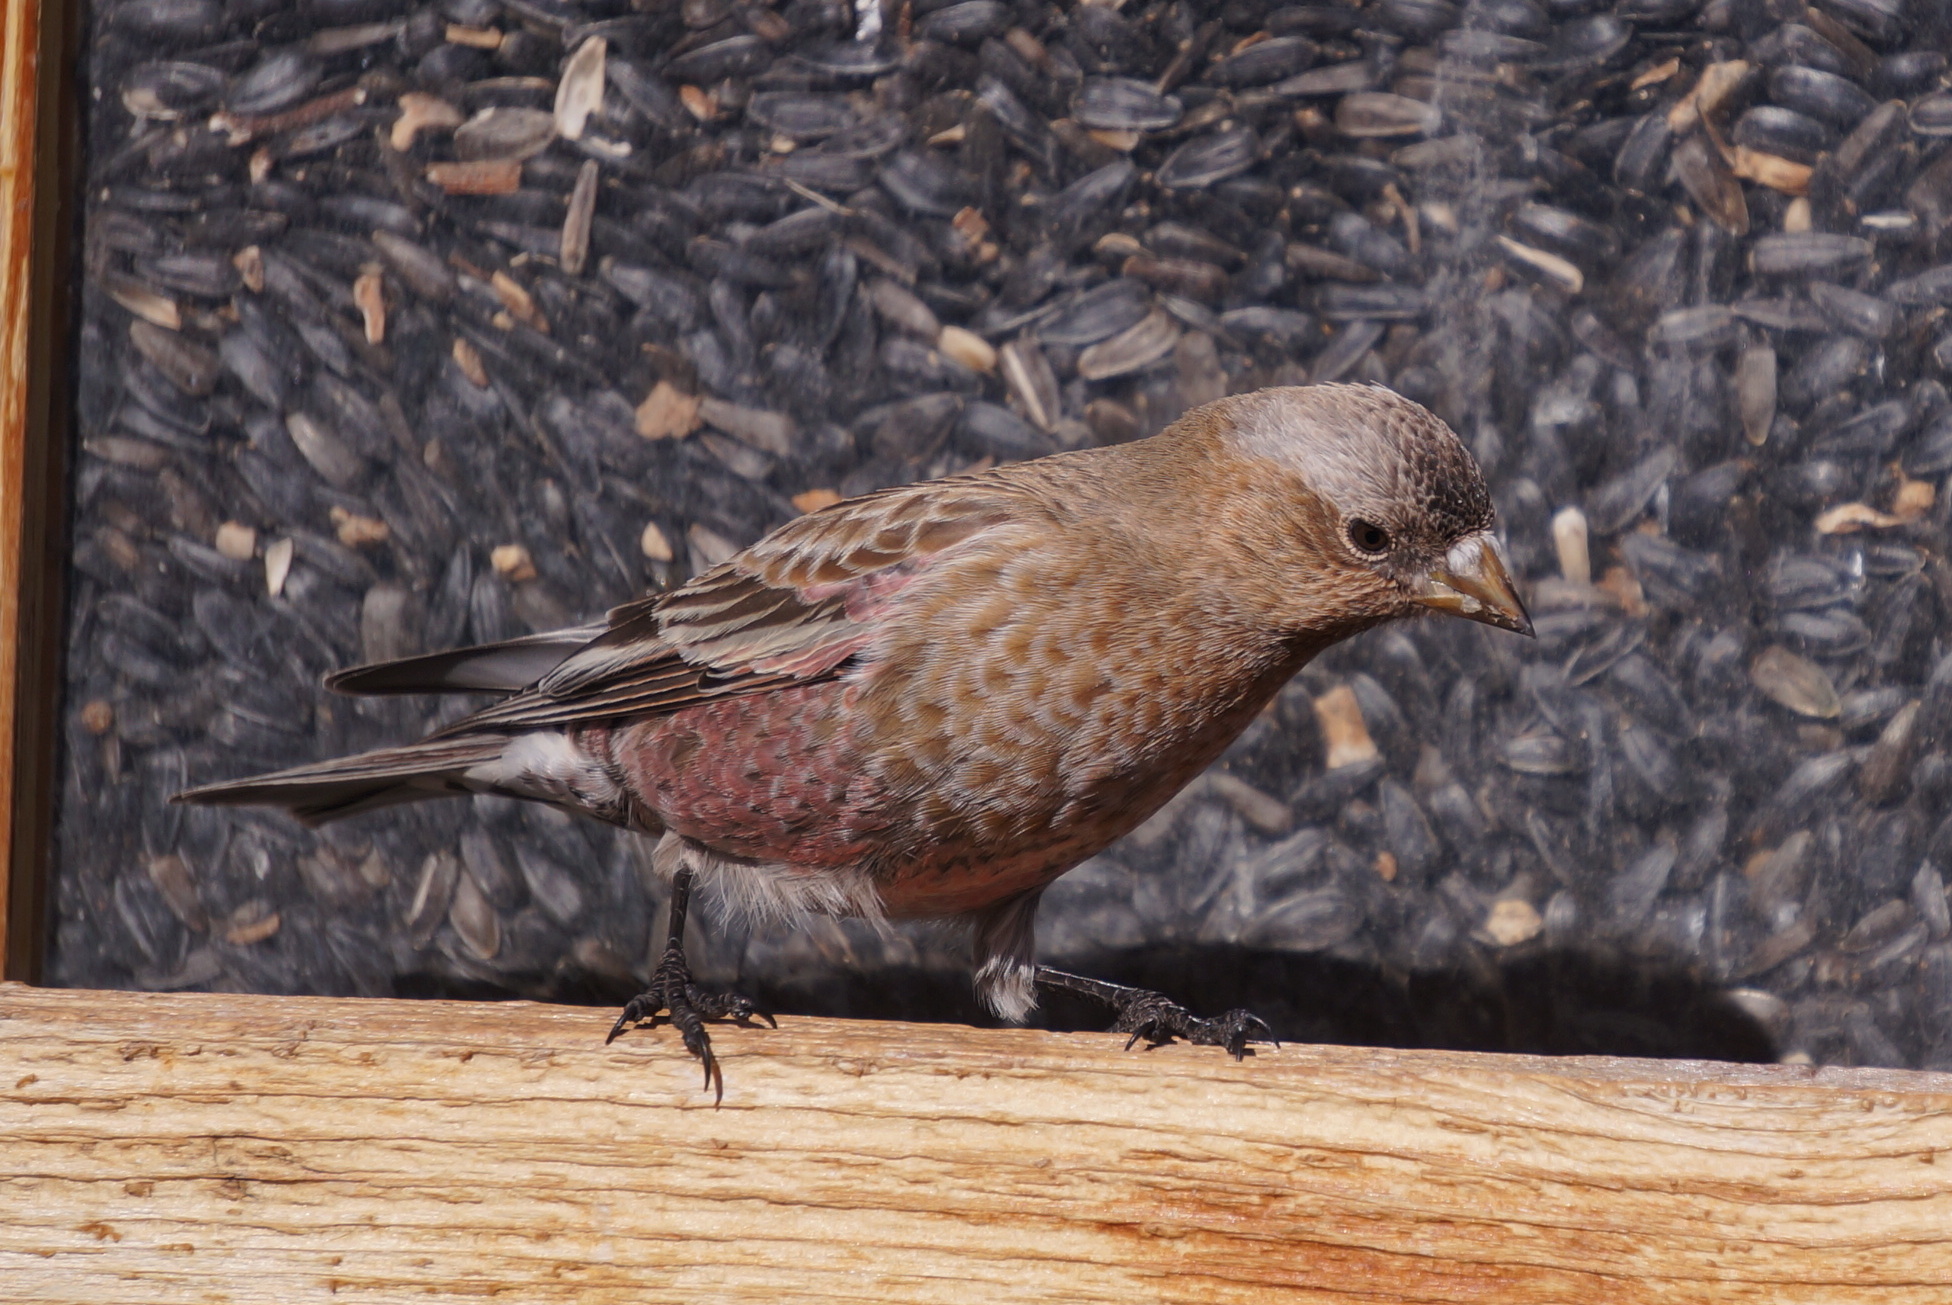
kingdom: Animalia
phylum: Chordata
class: Aves
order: Passeriformes
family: Fringillidae
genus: Leucosticte
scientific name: Leucosticte australis
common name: Brown-capped rosy-finch
